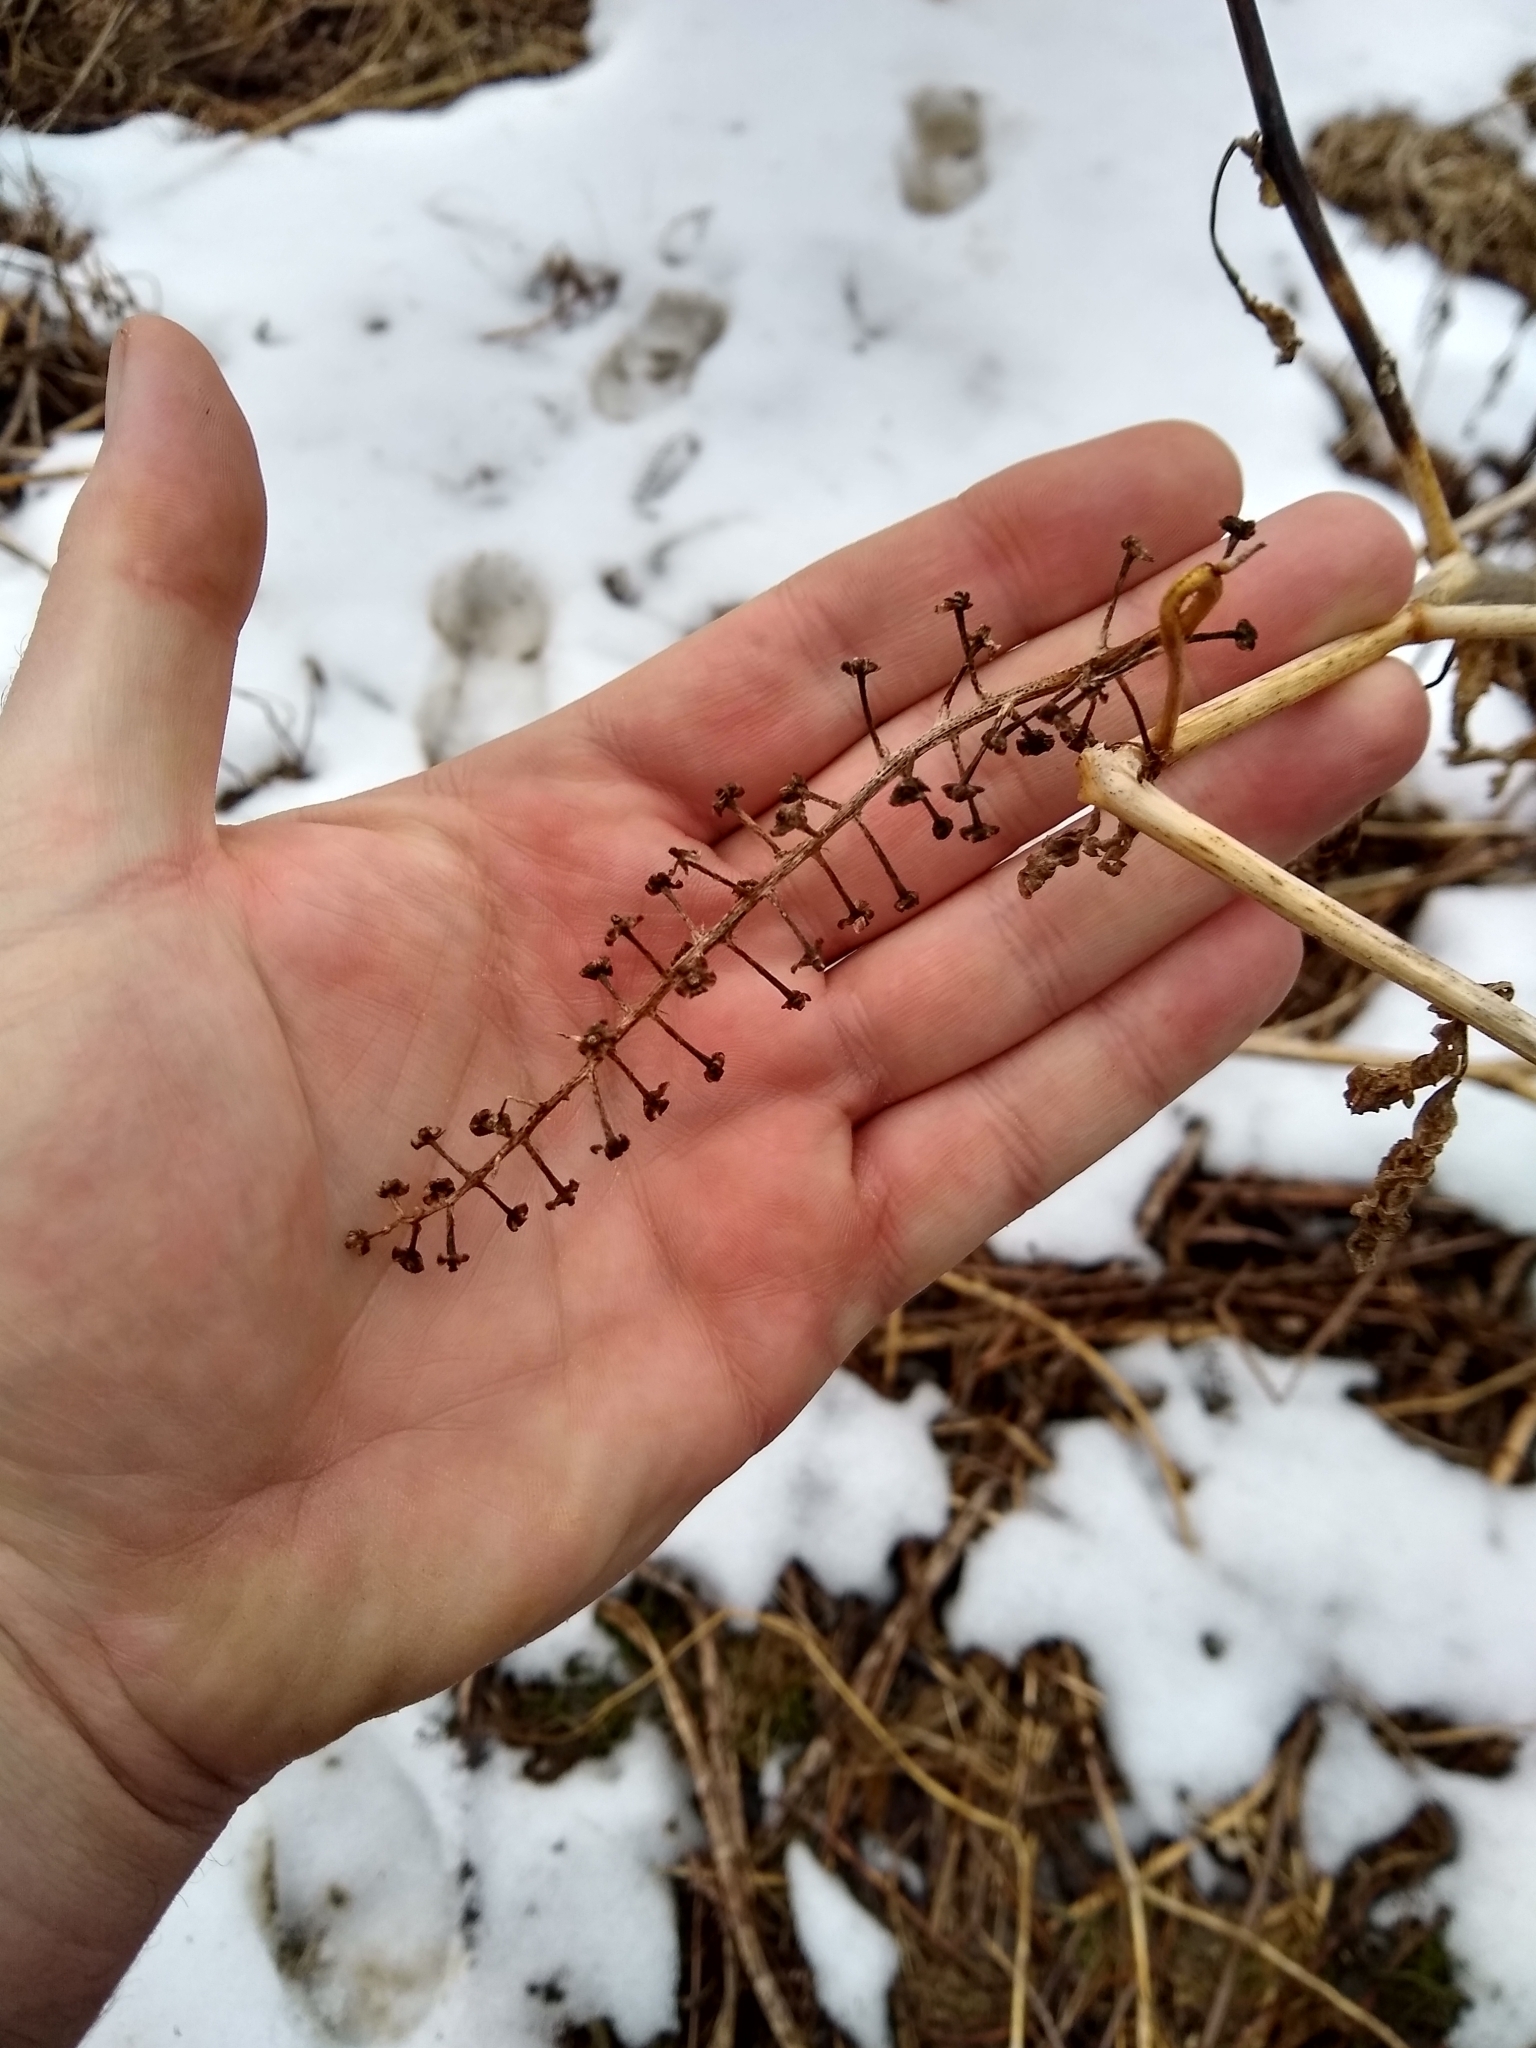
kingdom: Plantae
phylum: Tracheophyta
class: Magnoliopsida
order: Caryophyllales
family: Phytolaccaceae
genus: Phytolacca
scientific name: Phytolacca americana
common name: American pokeweed
